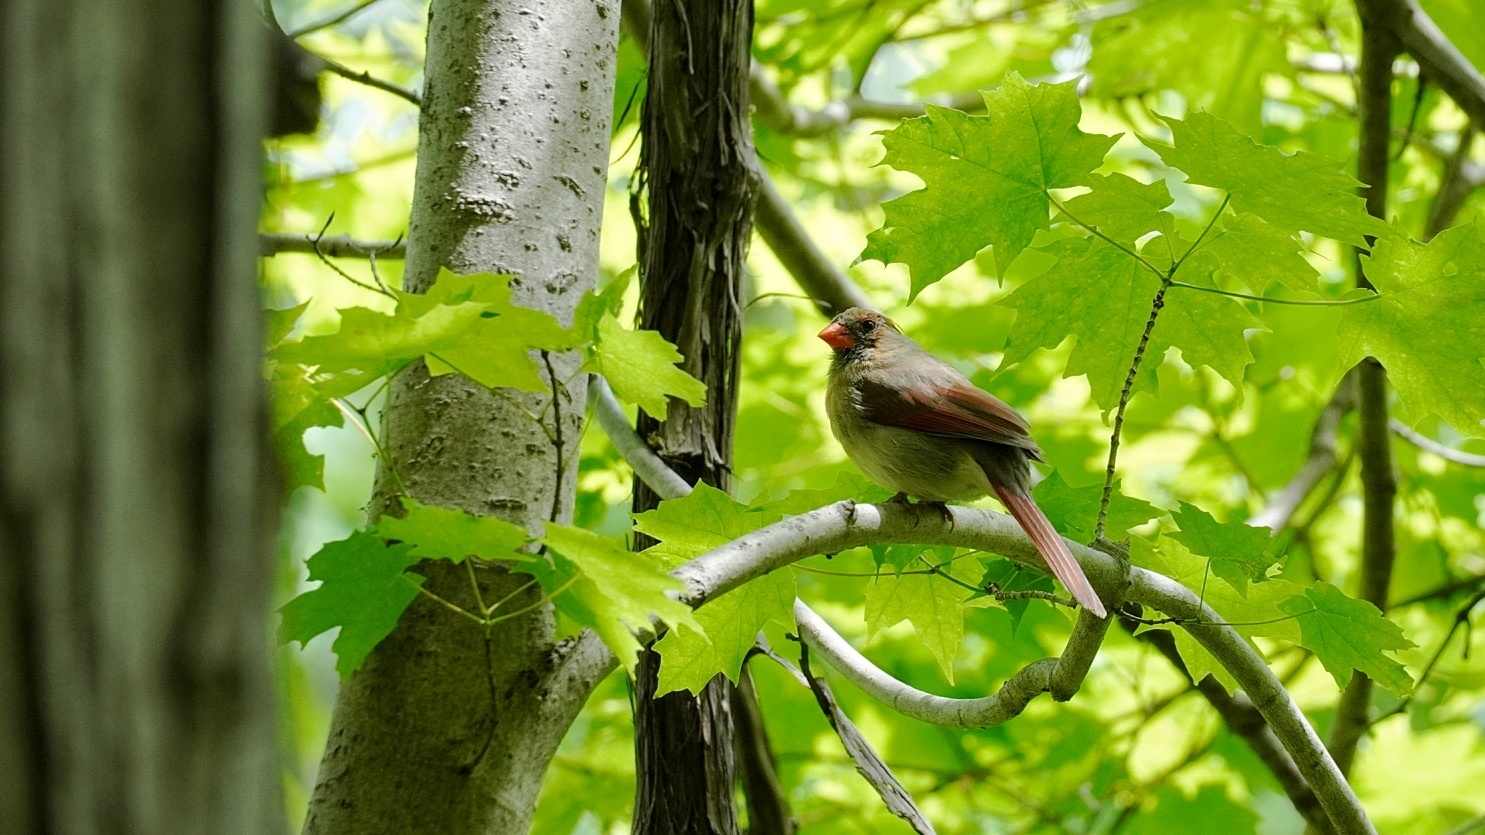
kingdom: Animalia
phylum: Chordata
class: Aves
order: Passeriformes
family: Cardinalidae
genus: Cardinalis
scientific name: Cardinalis cardinalis
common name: Northern cardinal
